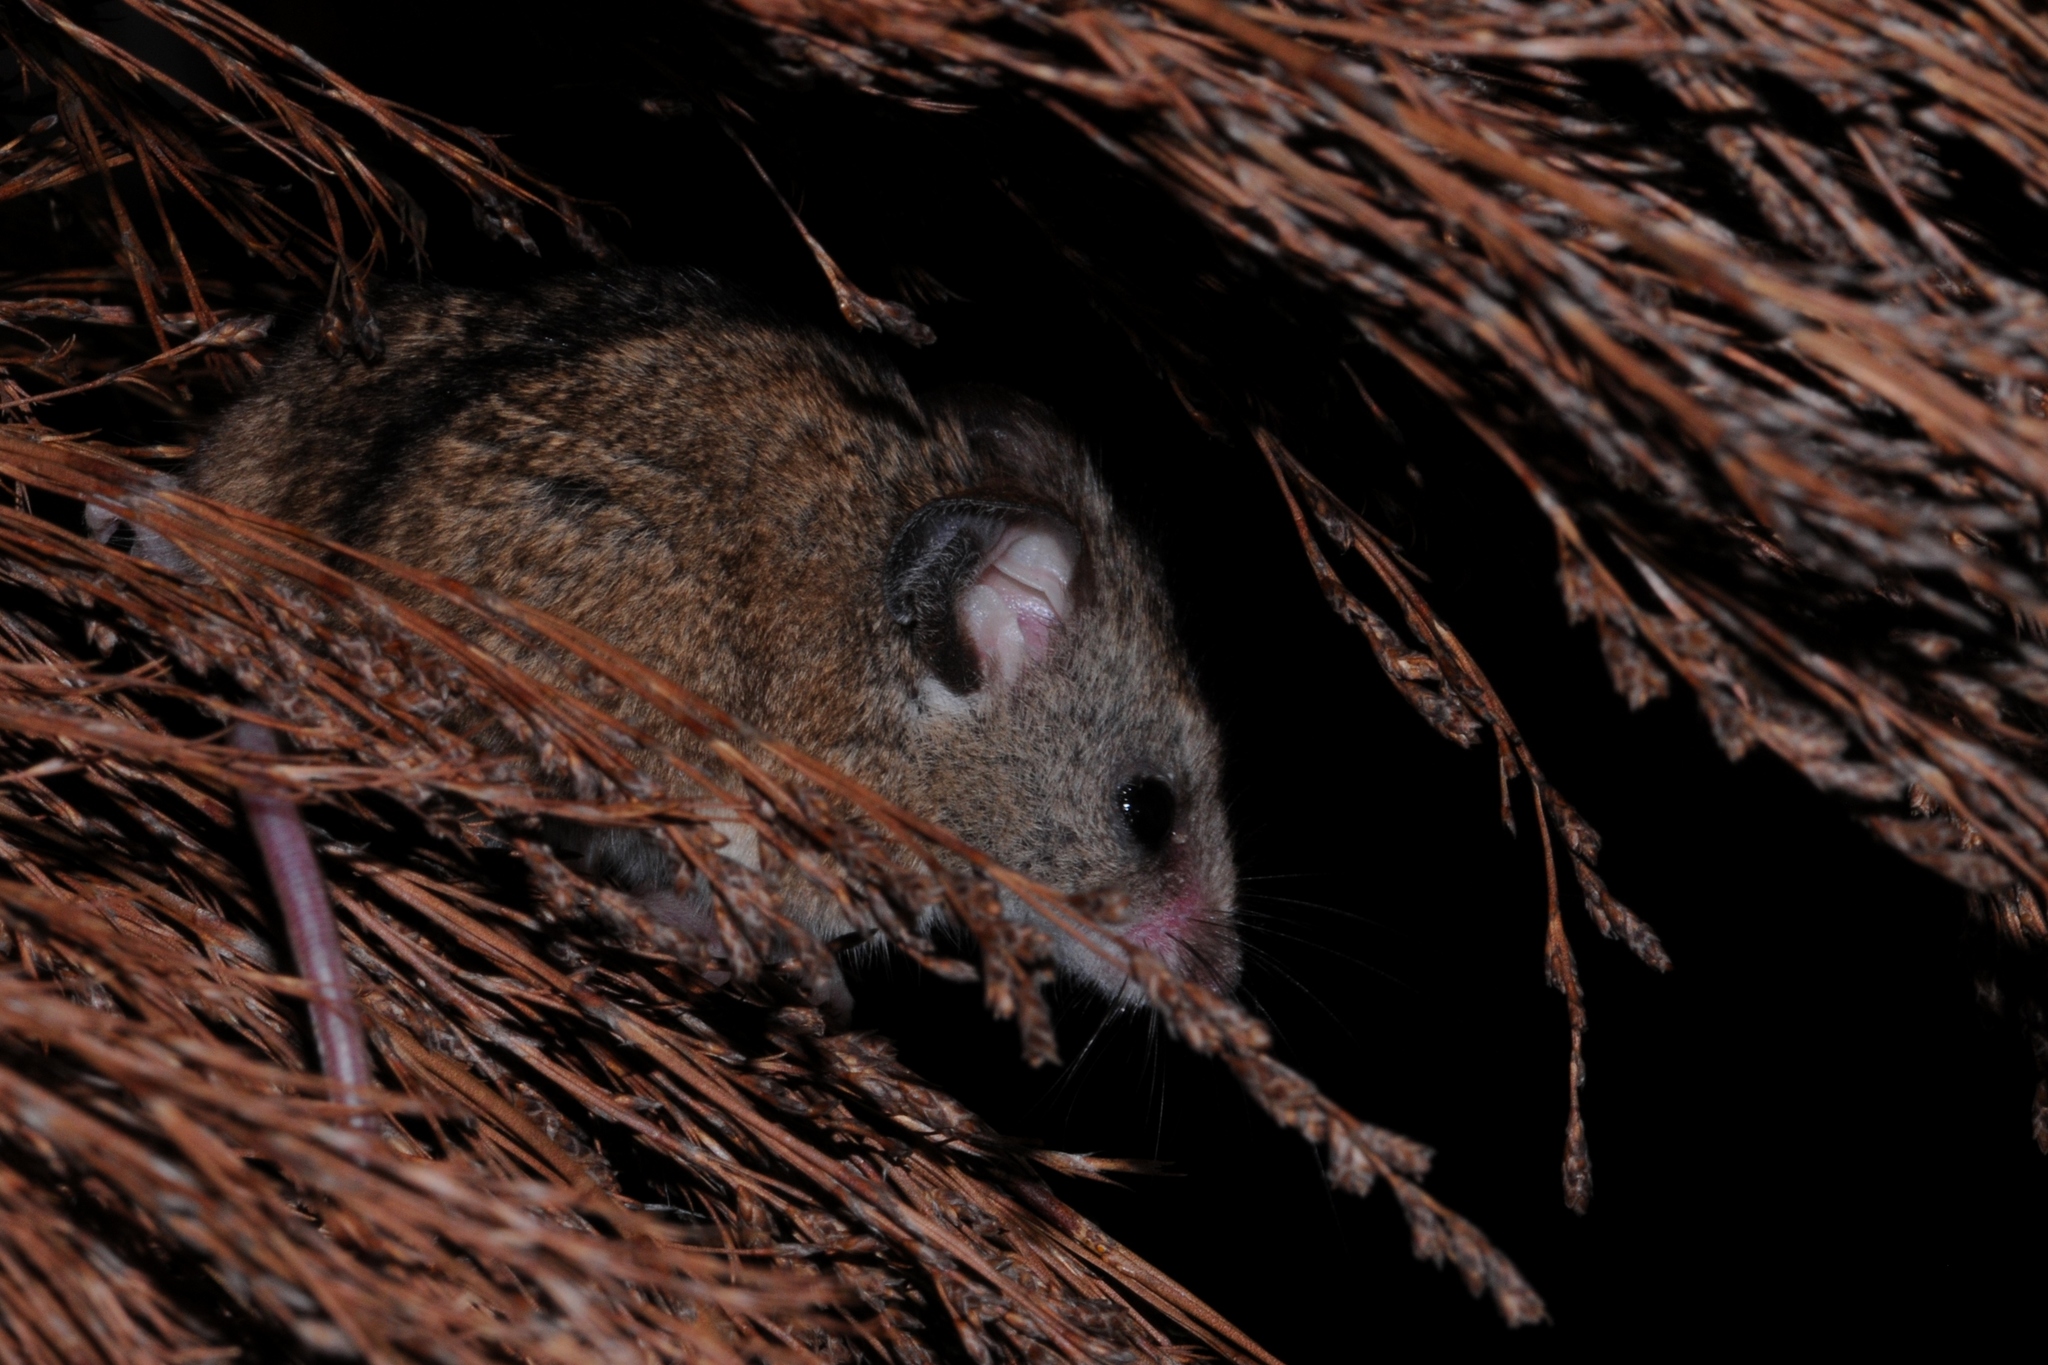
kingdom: Animalia
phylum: Chordata
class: Mammalia
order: Rodentia
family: Nesomyidae
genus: Dendromus
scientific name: Dendromus mesomelas
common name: Brant's climbing mouse
